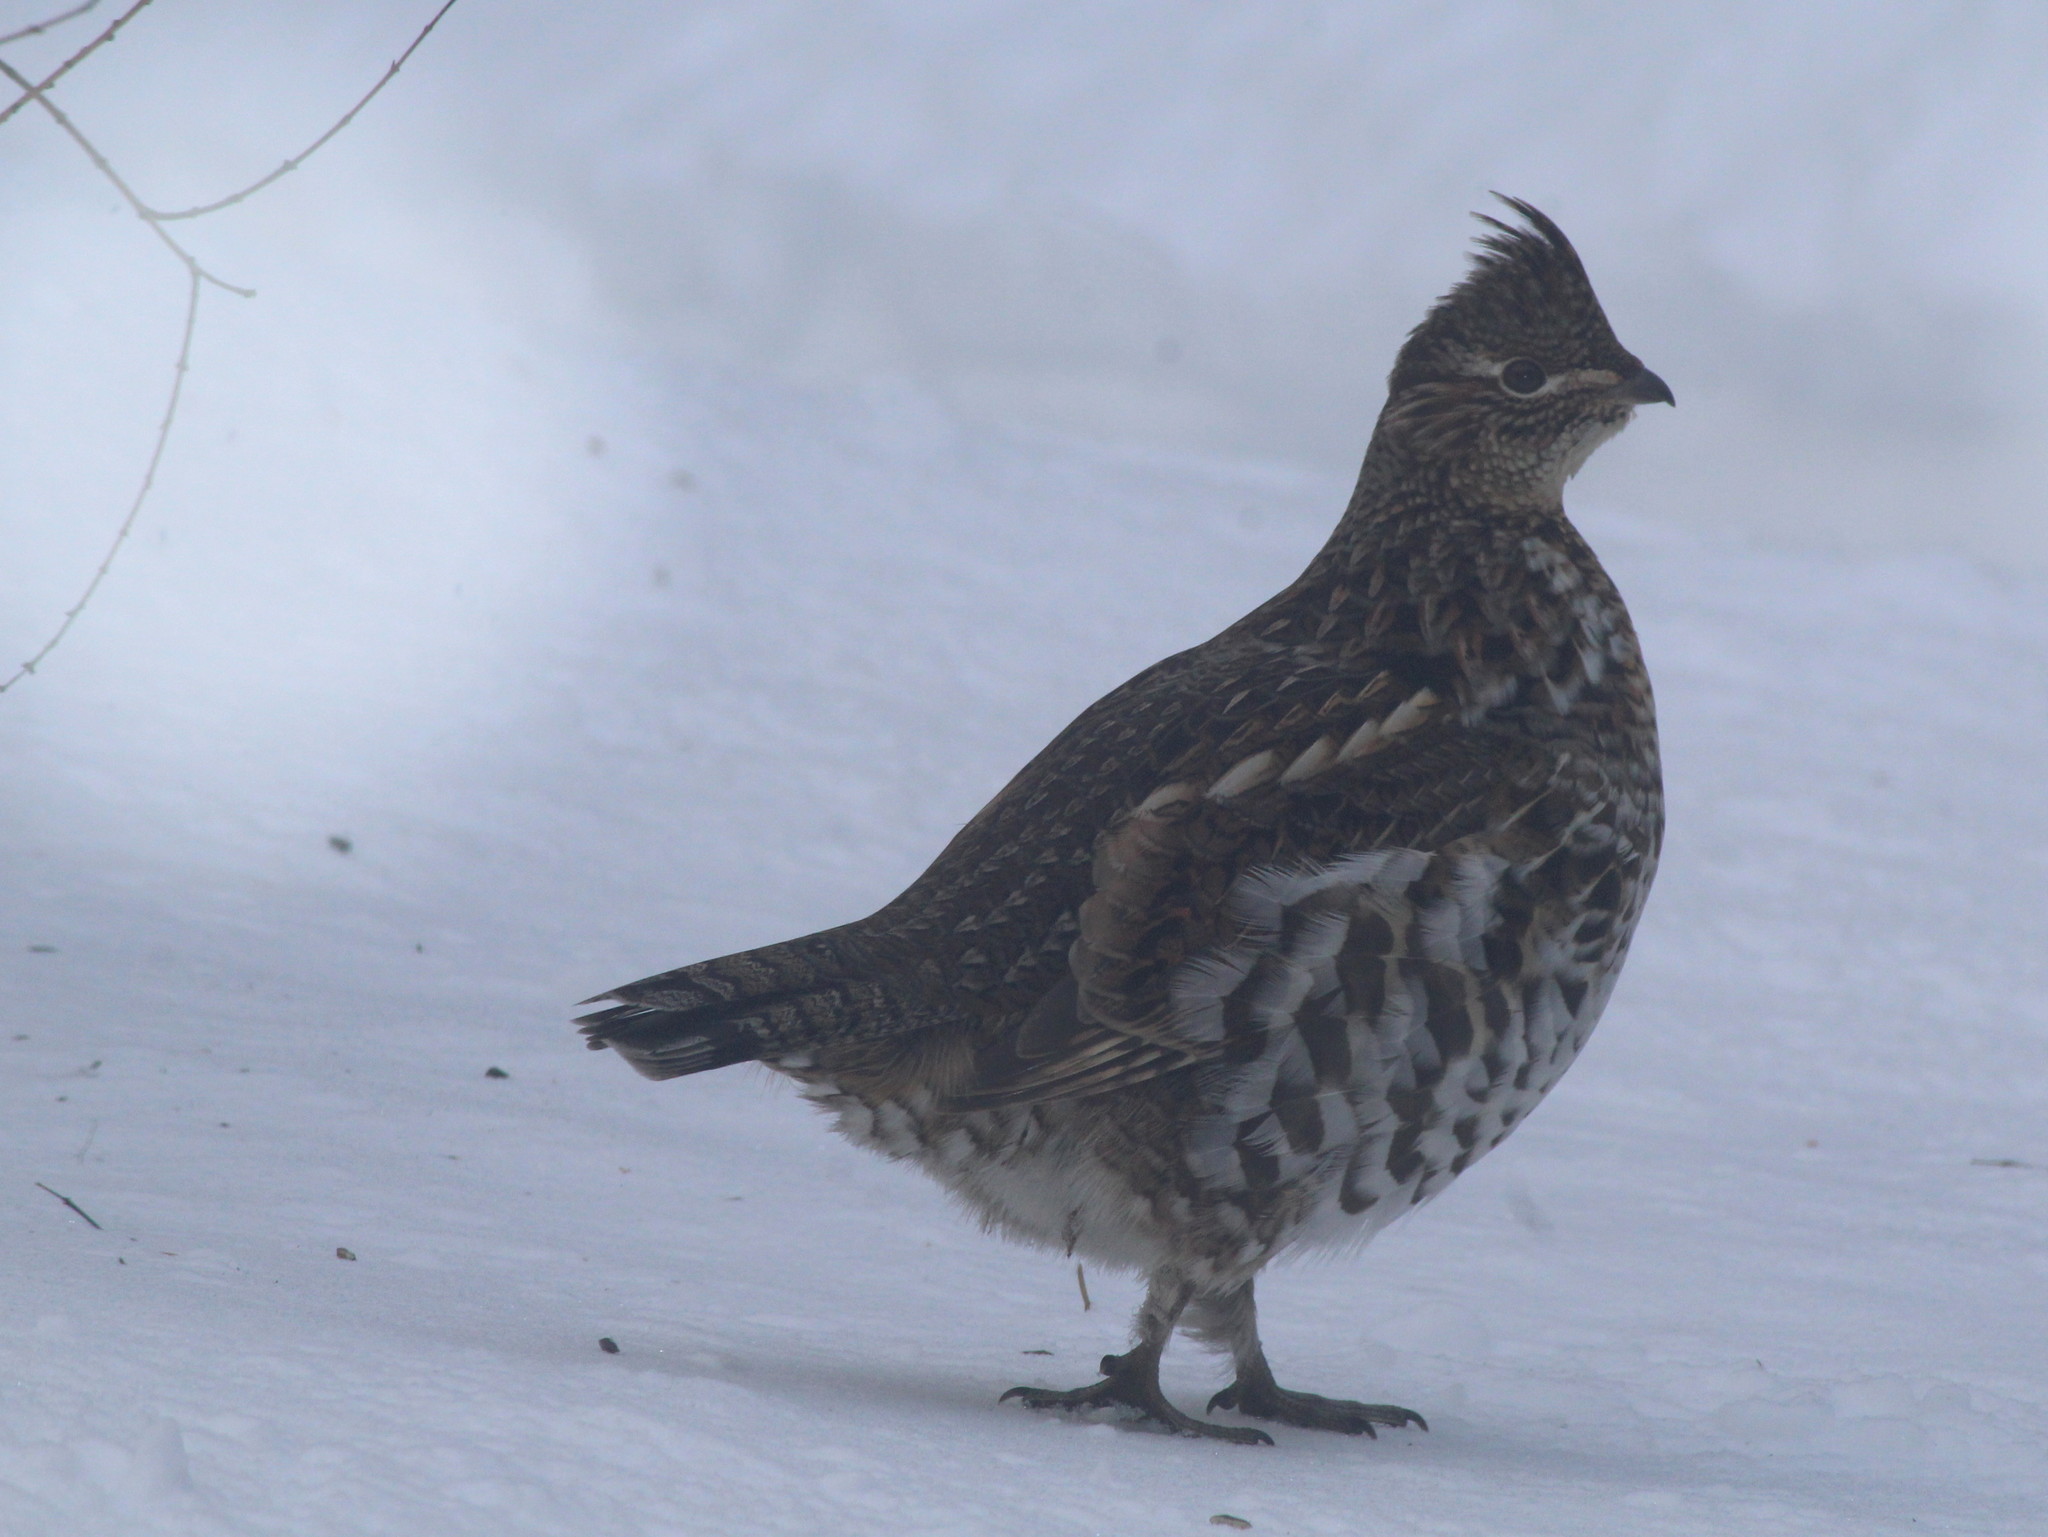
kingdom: Animalia
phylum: Chordata
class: Aves
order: Galliformes
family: Phasianidae
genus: Bonasa
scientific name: Bonasa umbellus
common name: Ruffed grouse
